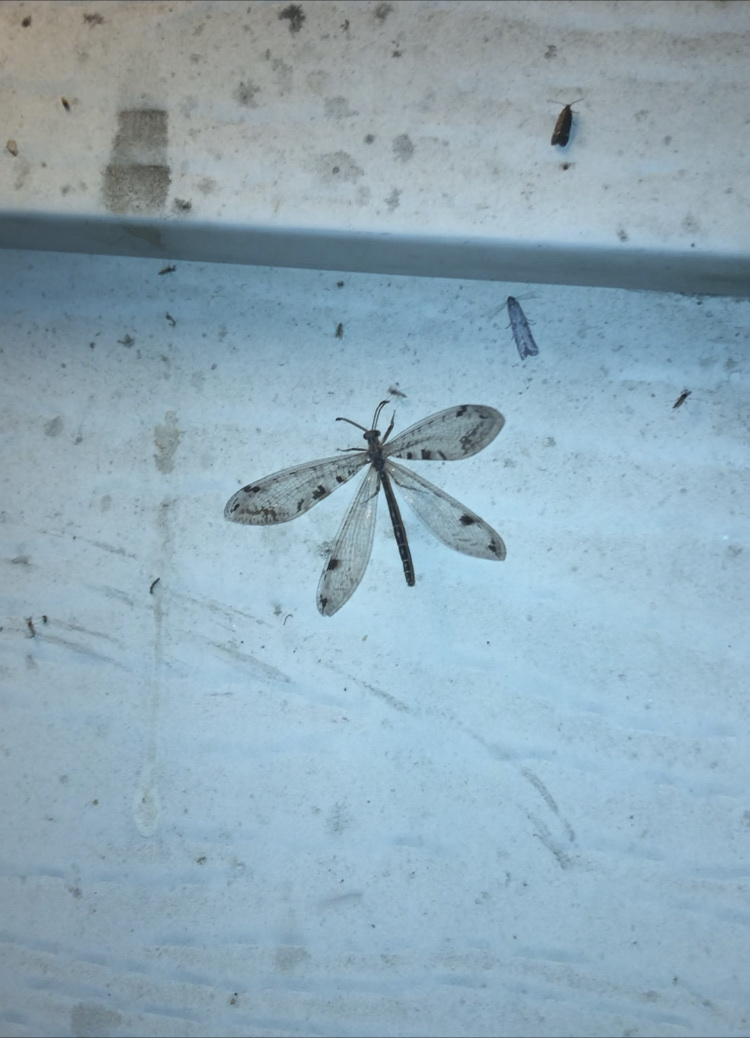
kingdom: Animalia
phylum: Arthropoda
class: Insecta
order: Neuroptera
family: Myrmeleontidae
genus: Dendroleon
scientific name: Dendroleon speciosus
